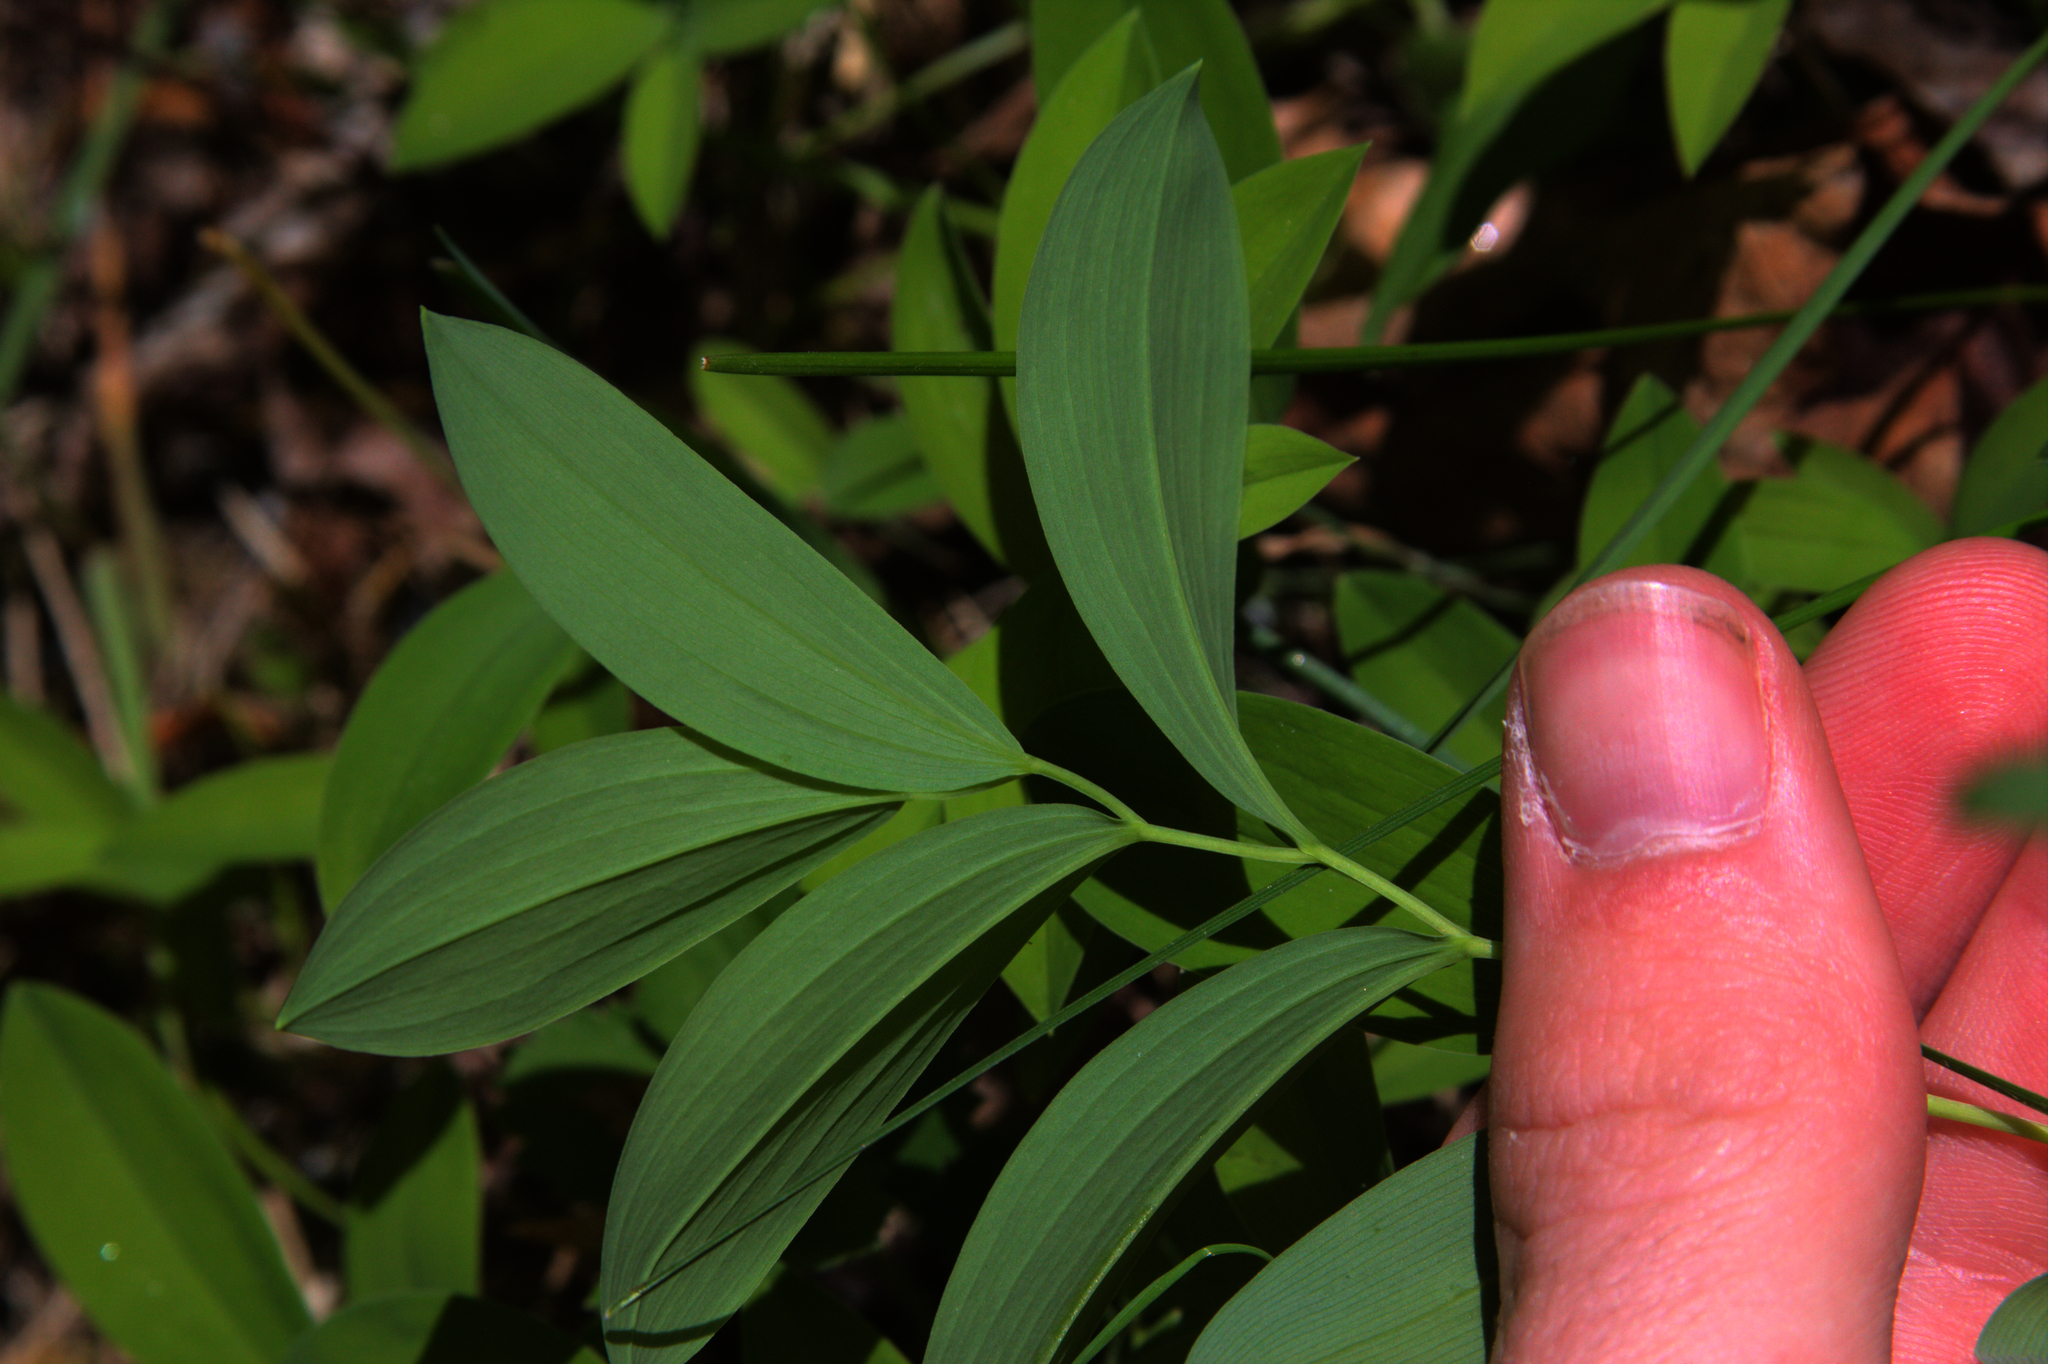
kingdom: Plantae
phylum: Tracheophyta
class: Liliopsida
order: Liliales
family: Colchicaceae
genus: Uvularia
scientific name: Uvularia sessilifolia
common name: Straw-lily
